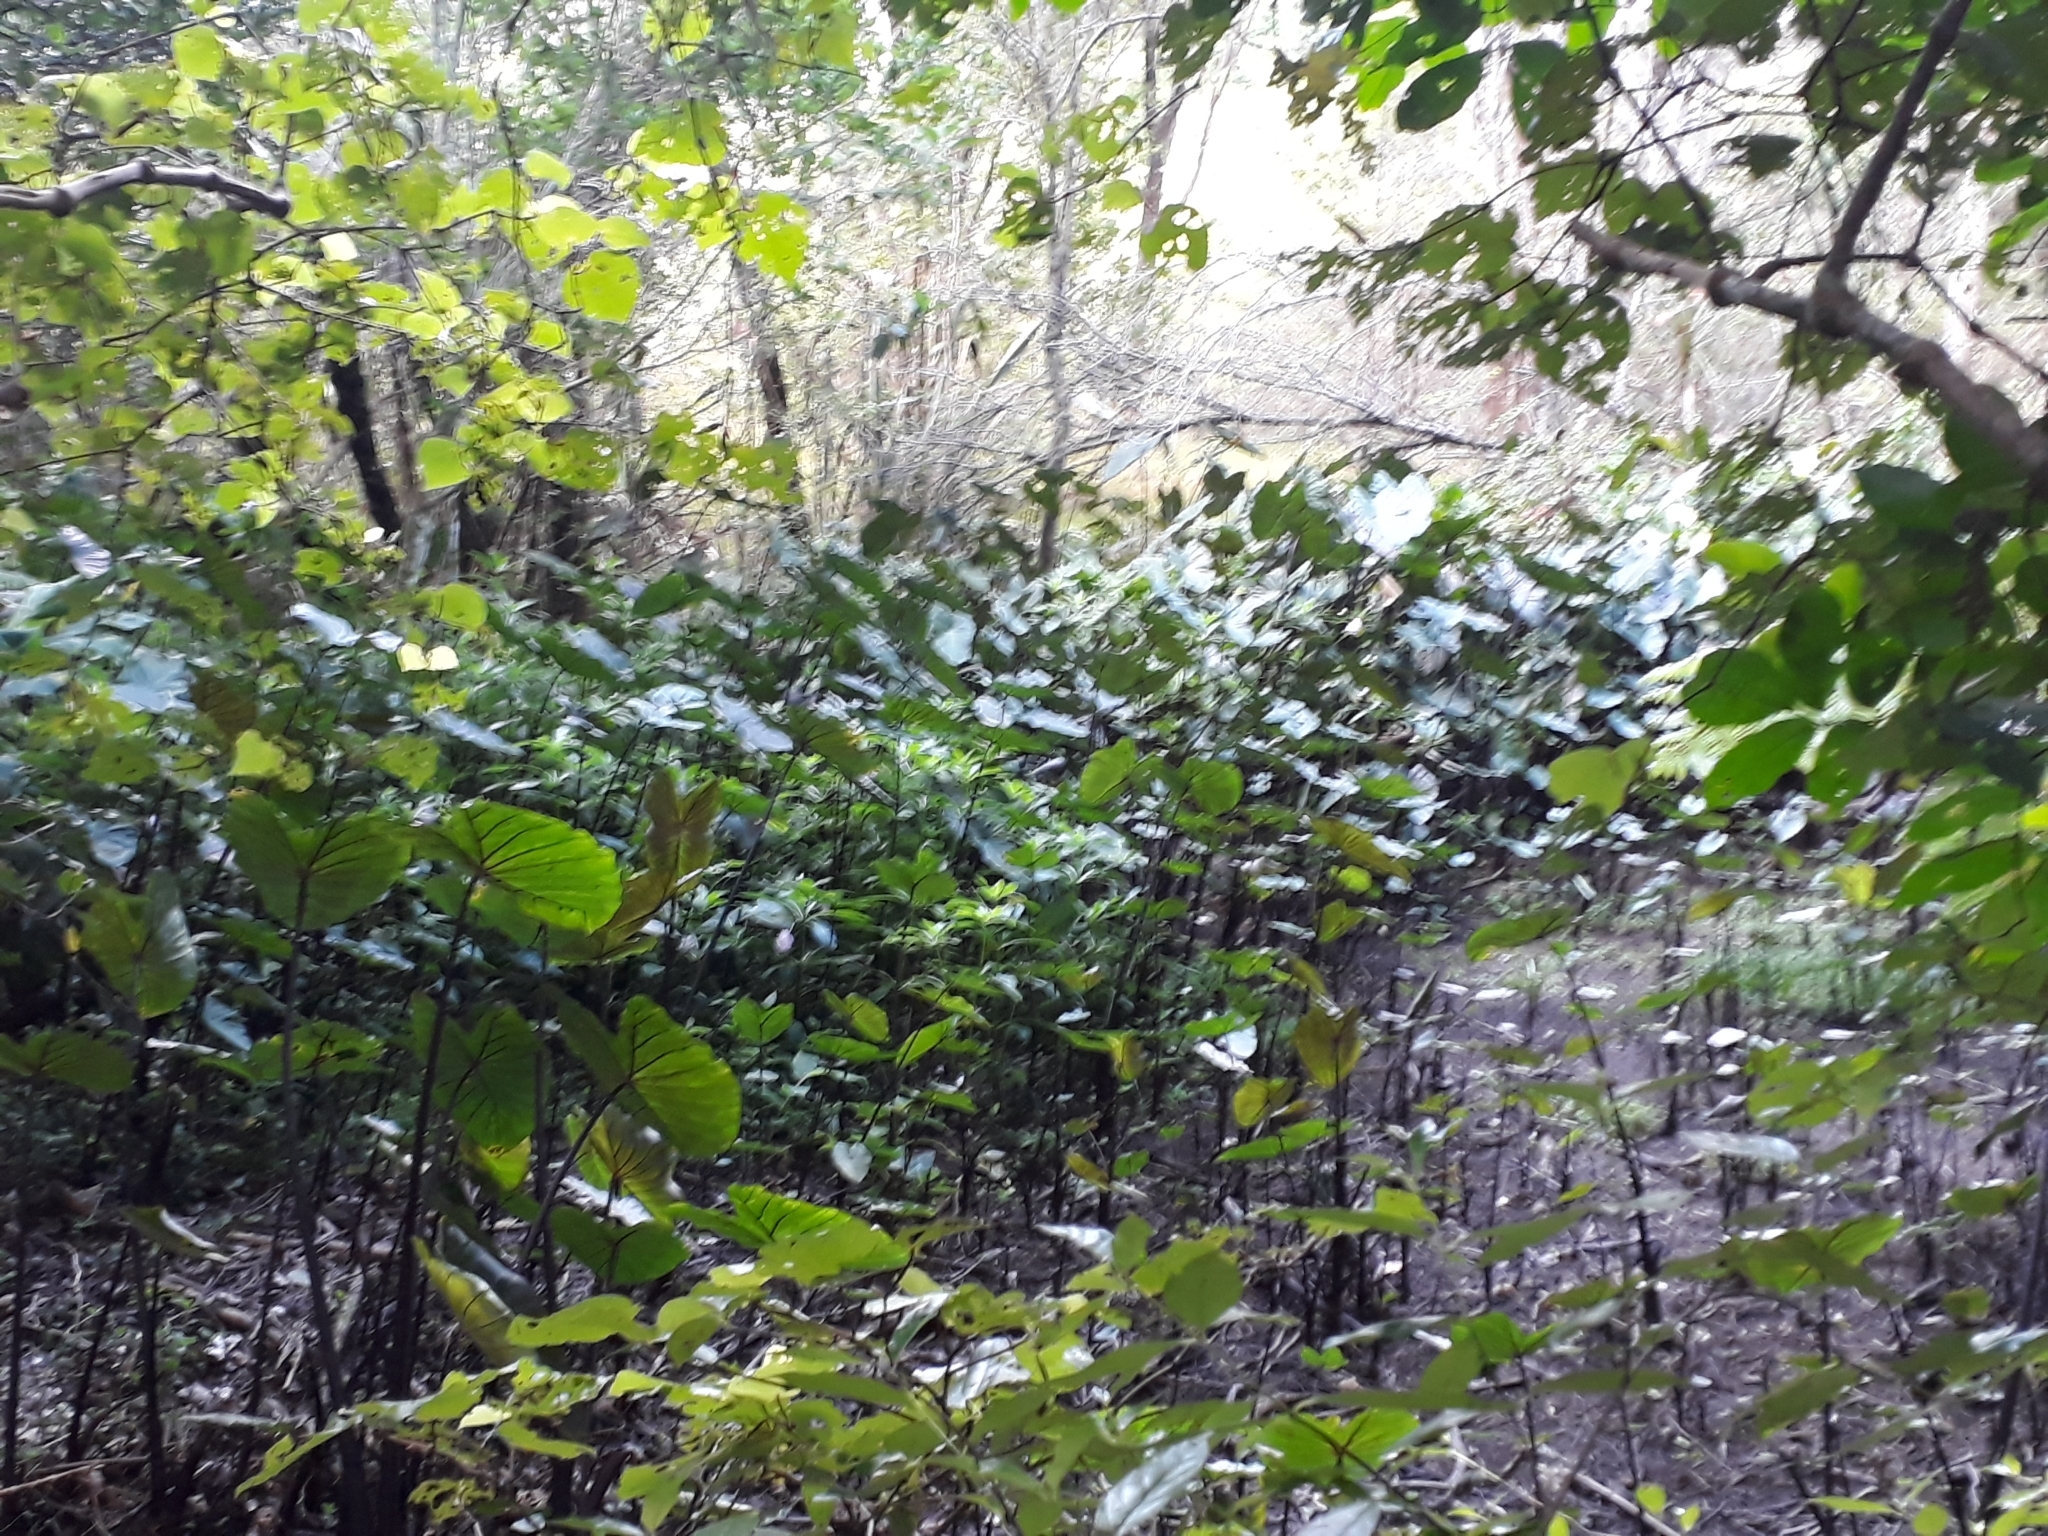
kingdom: Plantae
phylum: Tracheophyta
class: Liliopsida
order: Alismatales
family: Araceae
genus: Colocasia
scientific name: Colocasia esculenta
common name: Taro
